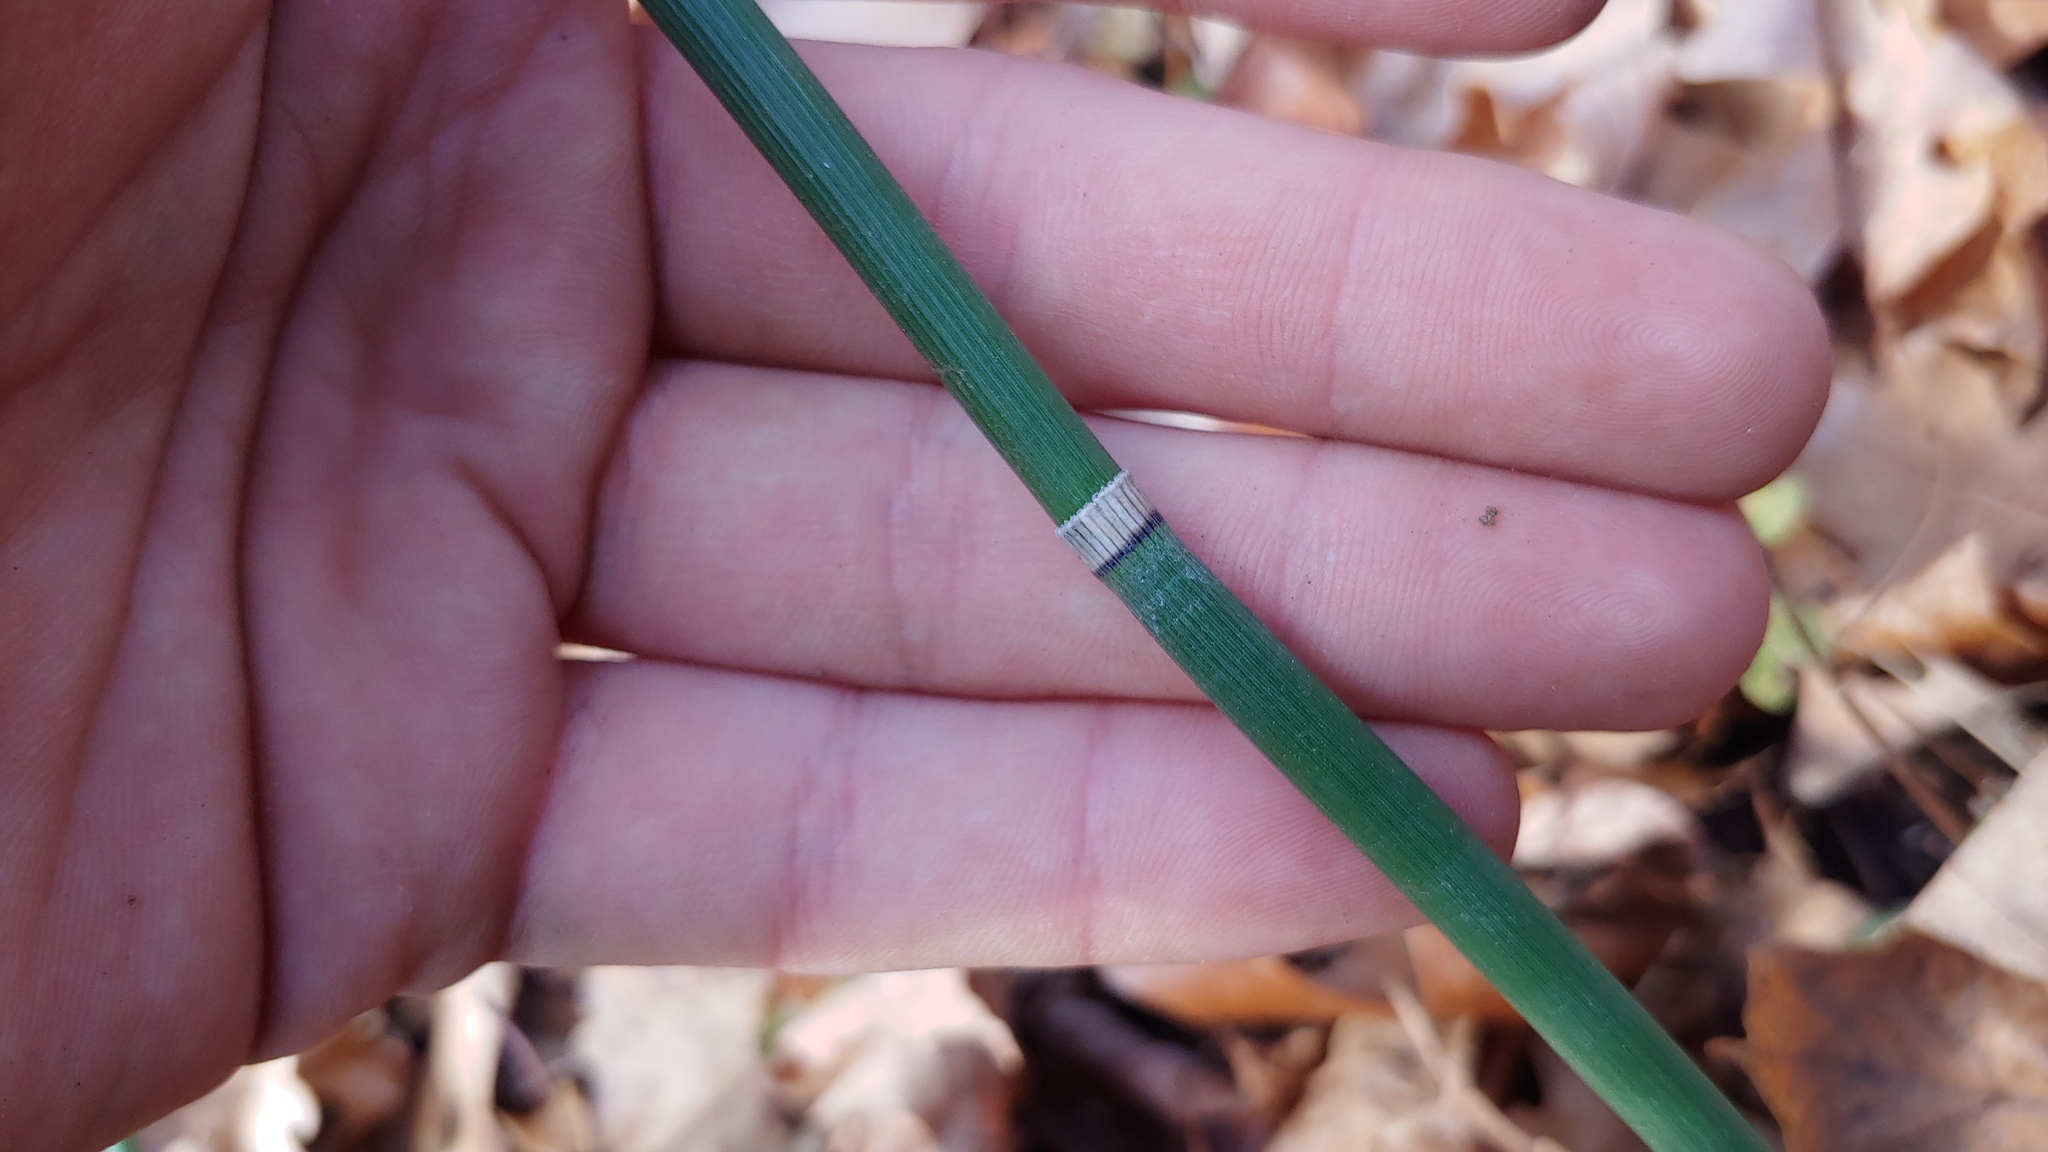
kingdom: Plantae
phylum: Tracheophyta
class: Polypodiopsida
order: Equisetales
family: Equisetaceae
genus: Equisetum
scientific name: Equisetum praealtum
